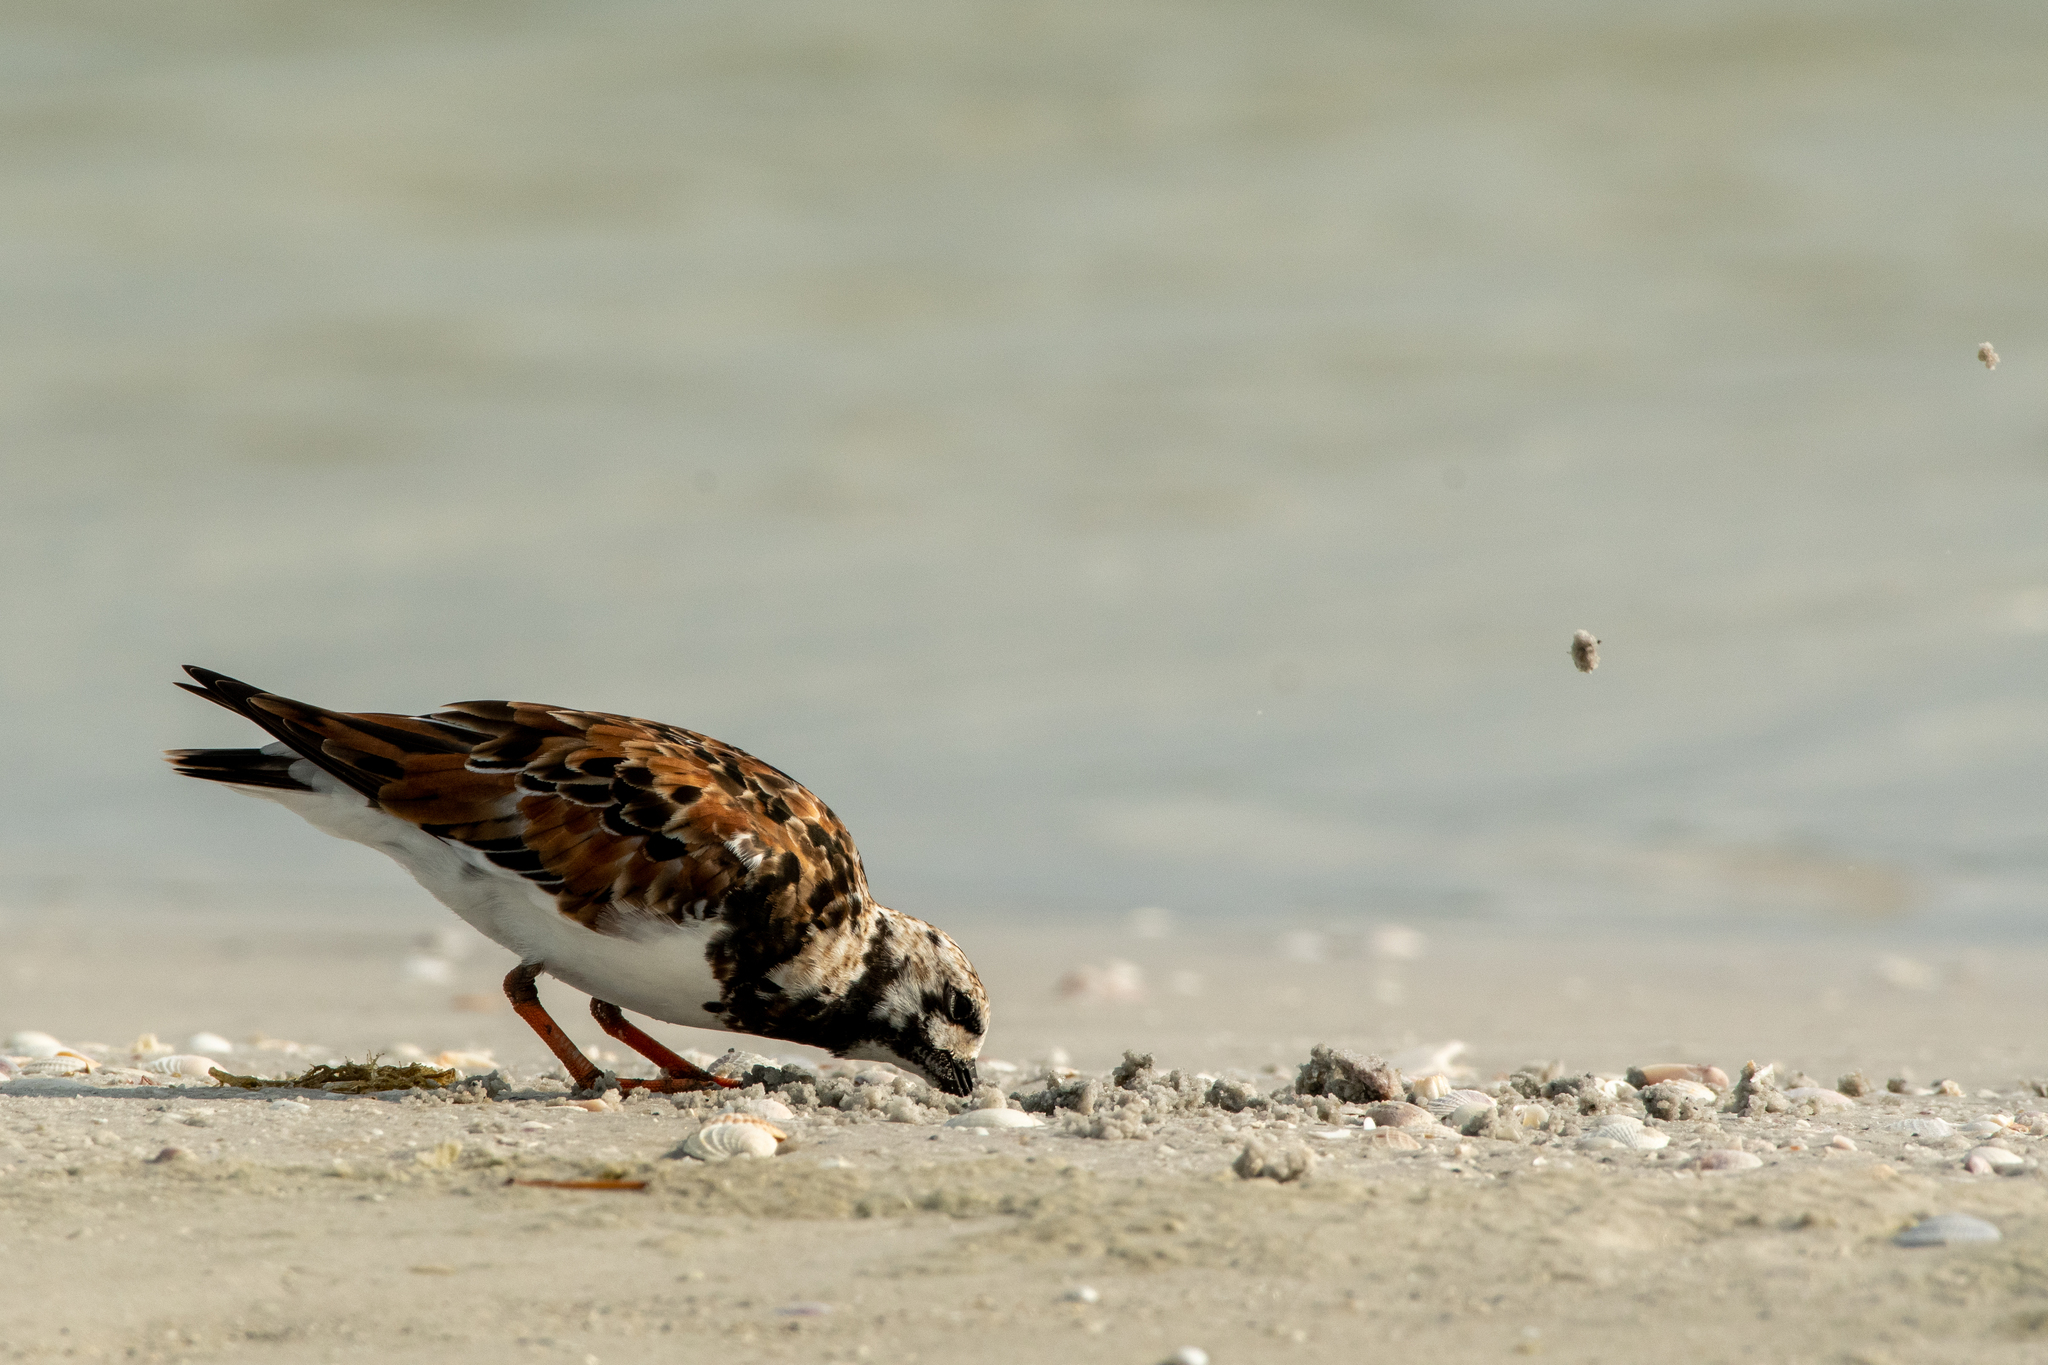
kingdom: Animalia
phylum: Chordata
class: Aves
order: Charadriiformes
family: Scolopacidae
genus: Arenaria
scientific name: Arenaria interpres
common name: Ruddy turnstone
